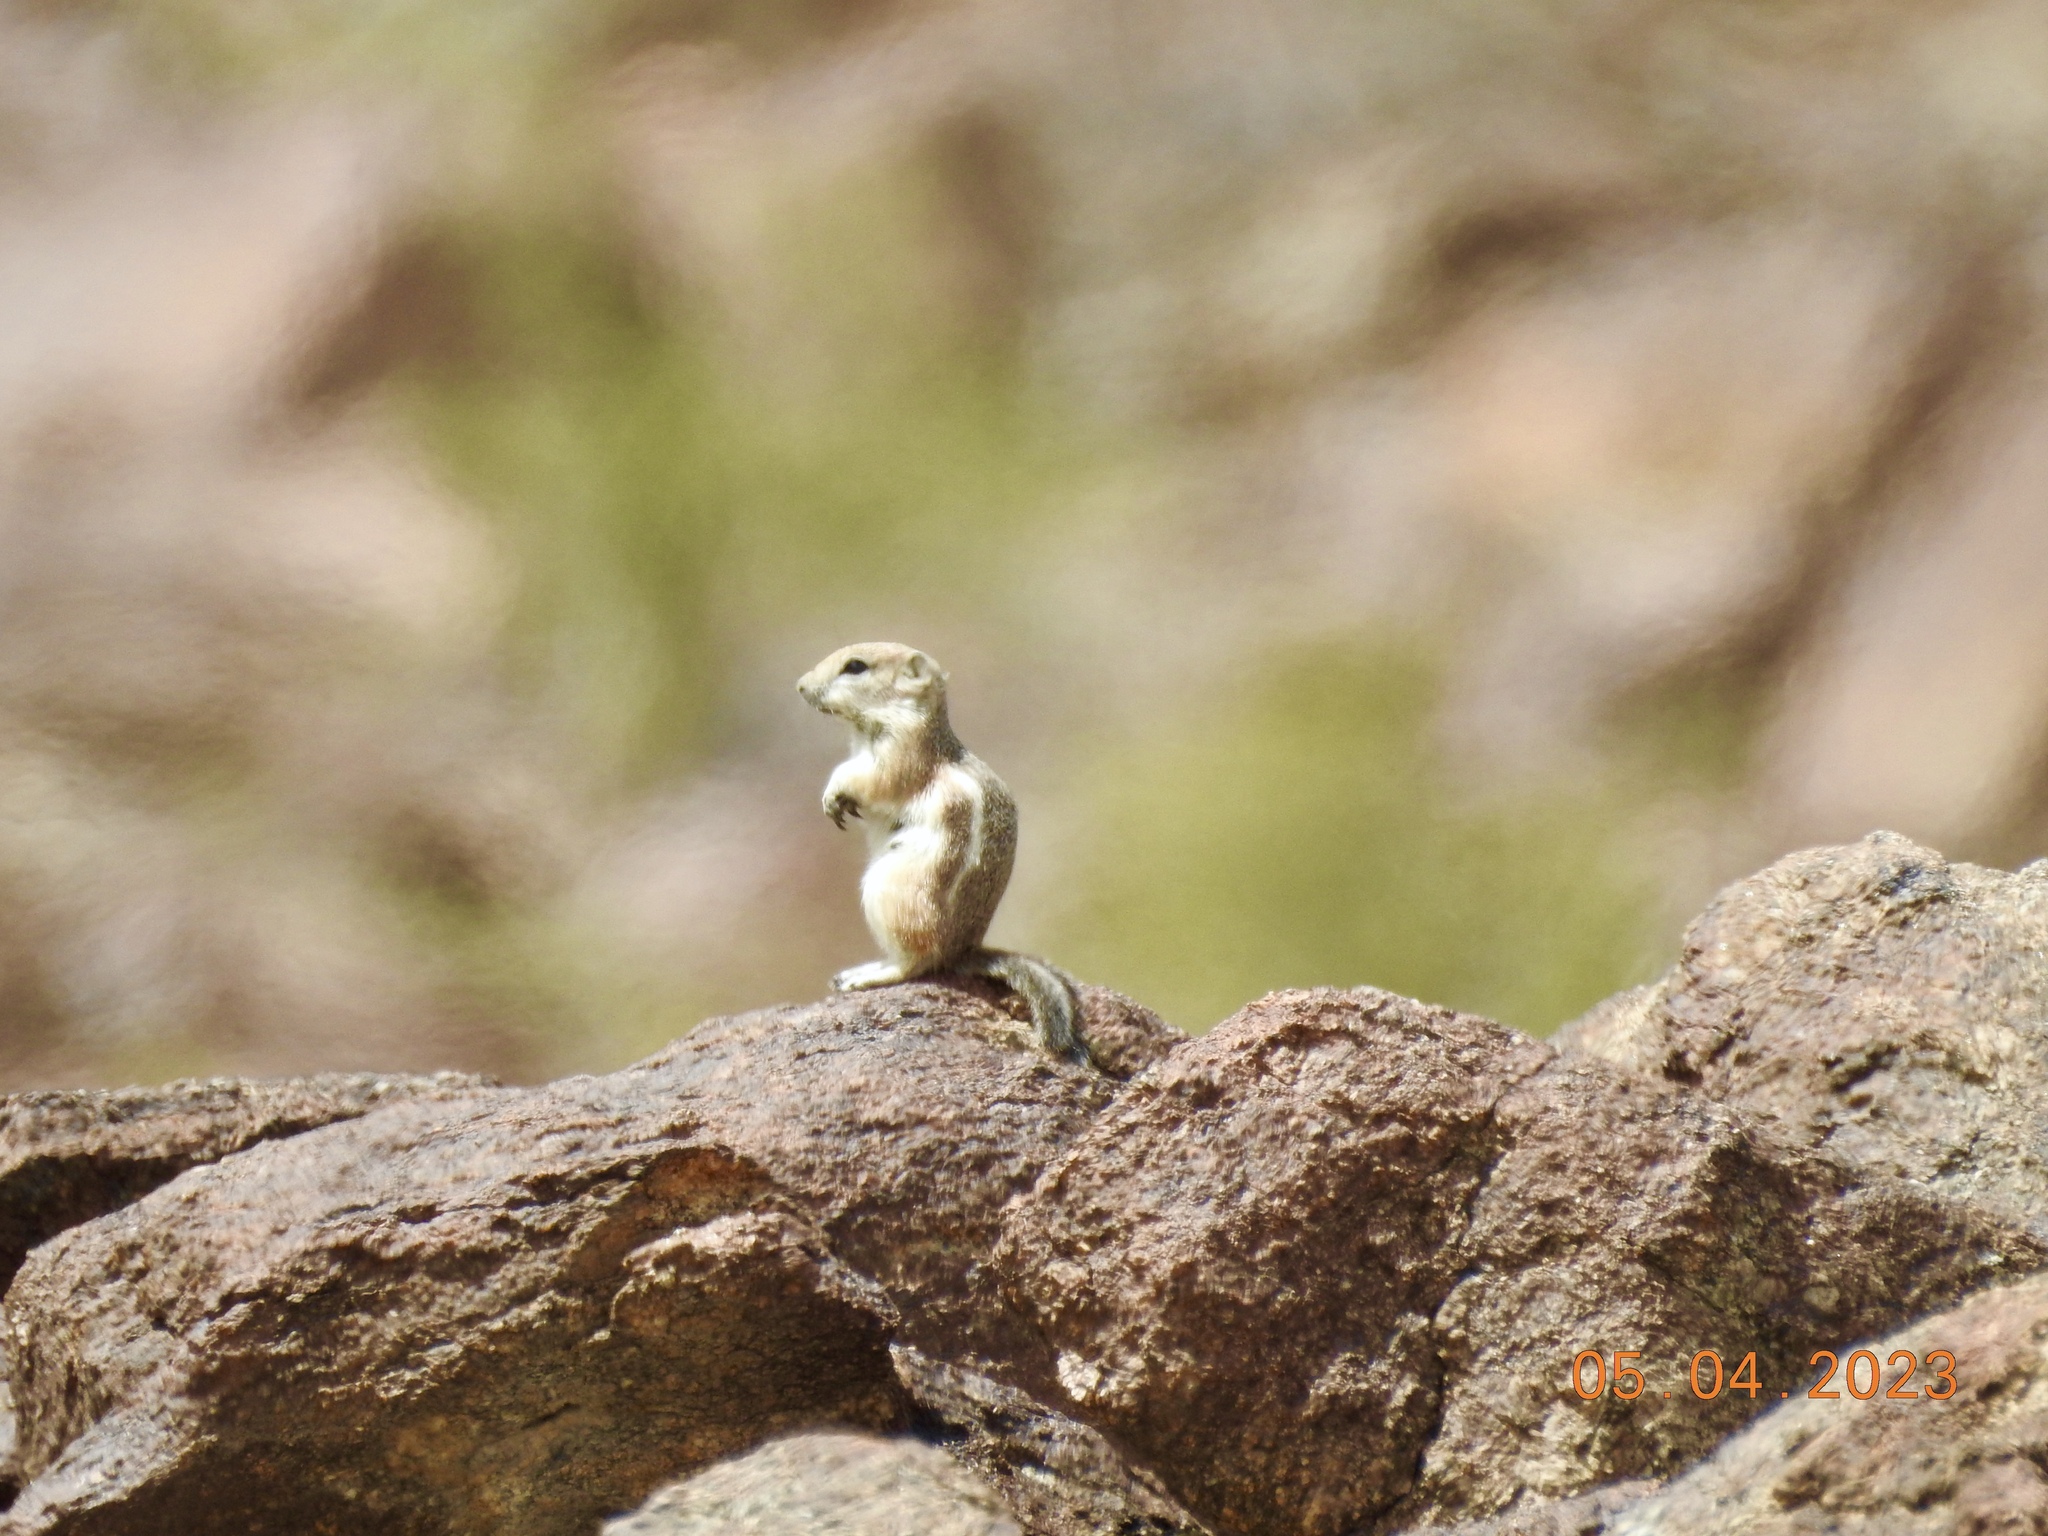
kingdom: Animalia
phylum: Chordata
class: Mammalia
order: Rodentia
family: Sciuridae
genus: Ammospermophilus
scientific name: Ammospermophilus leucurus
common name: White-tailed antelope squirrel
